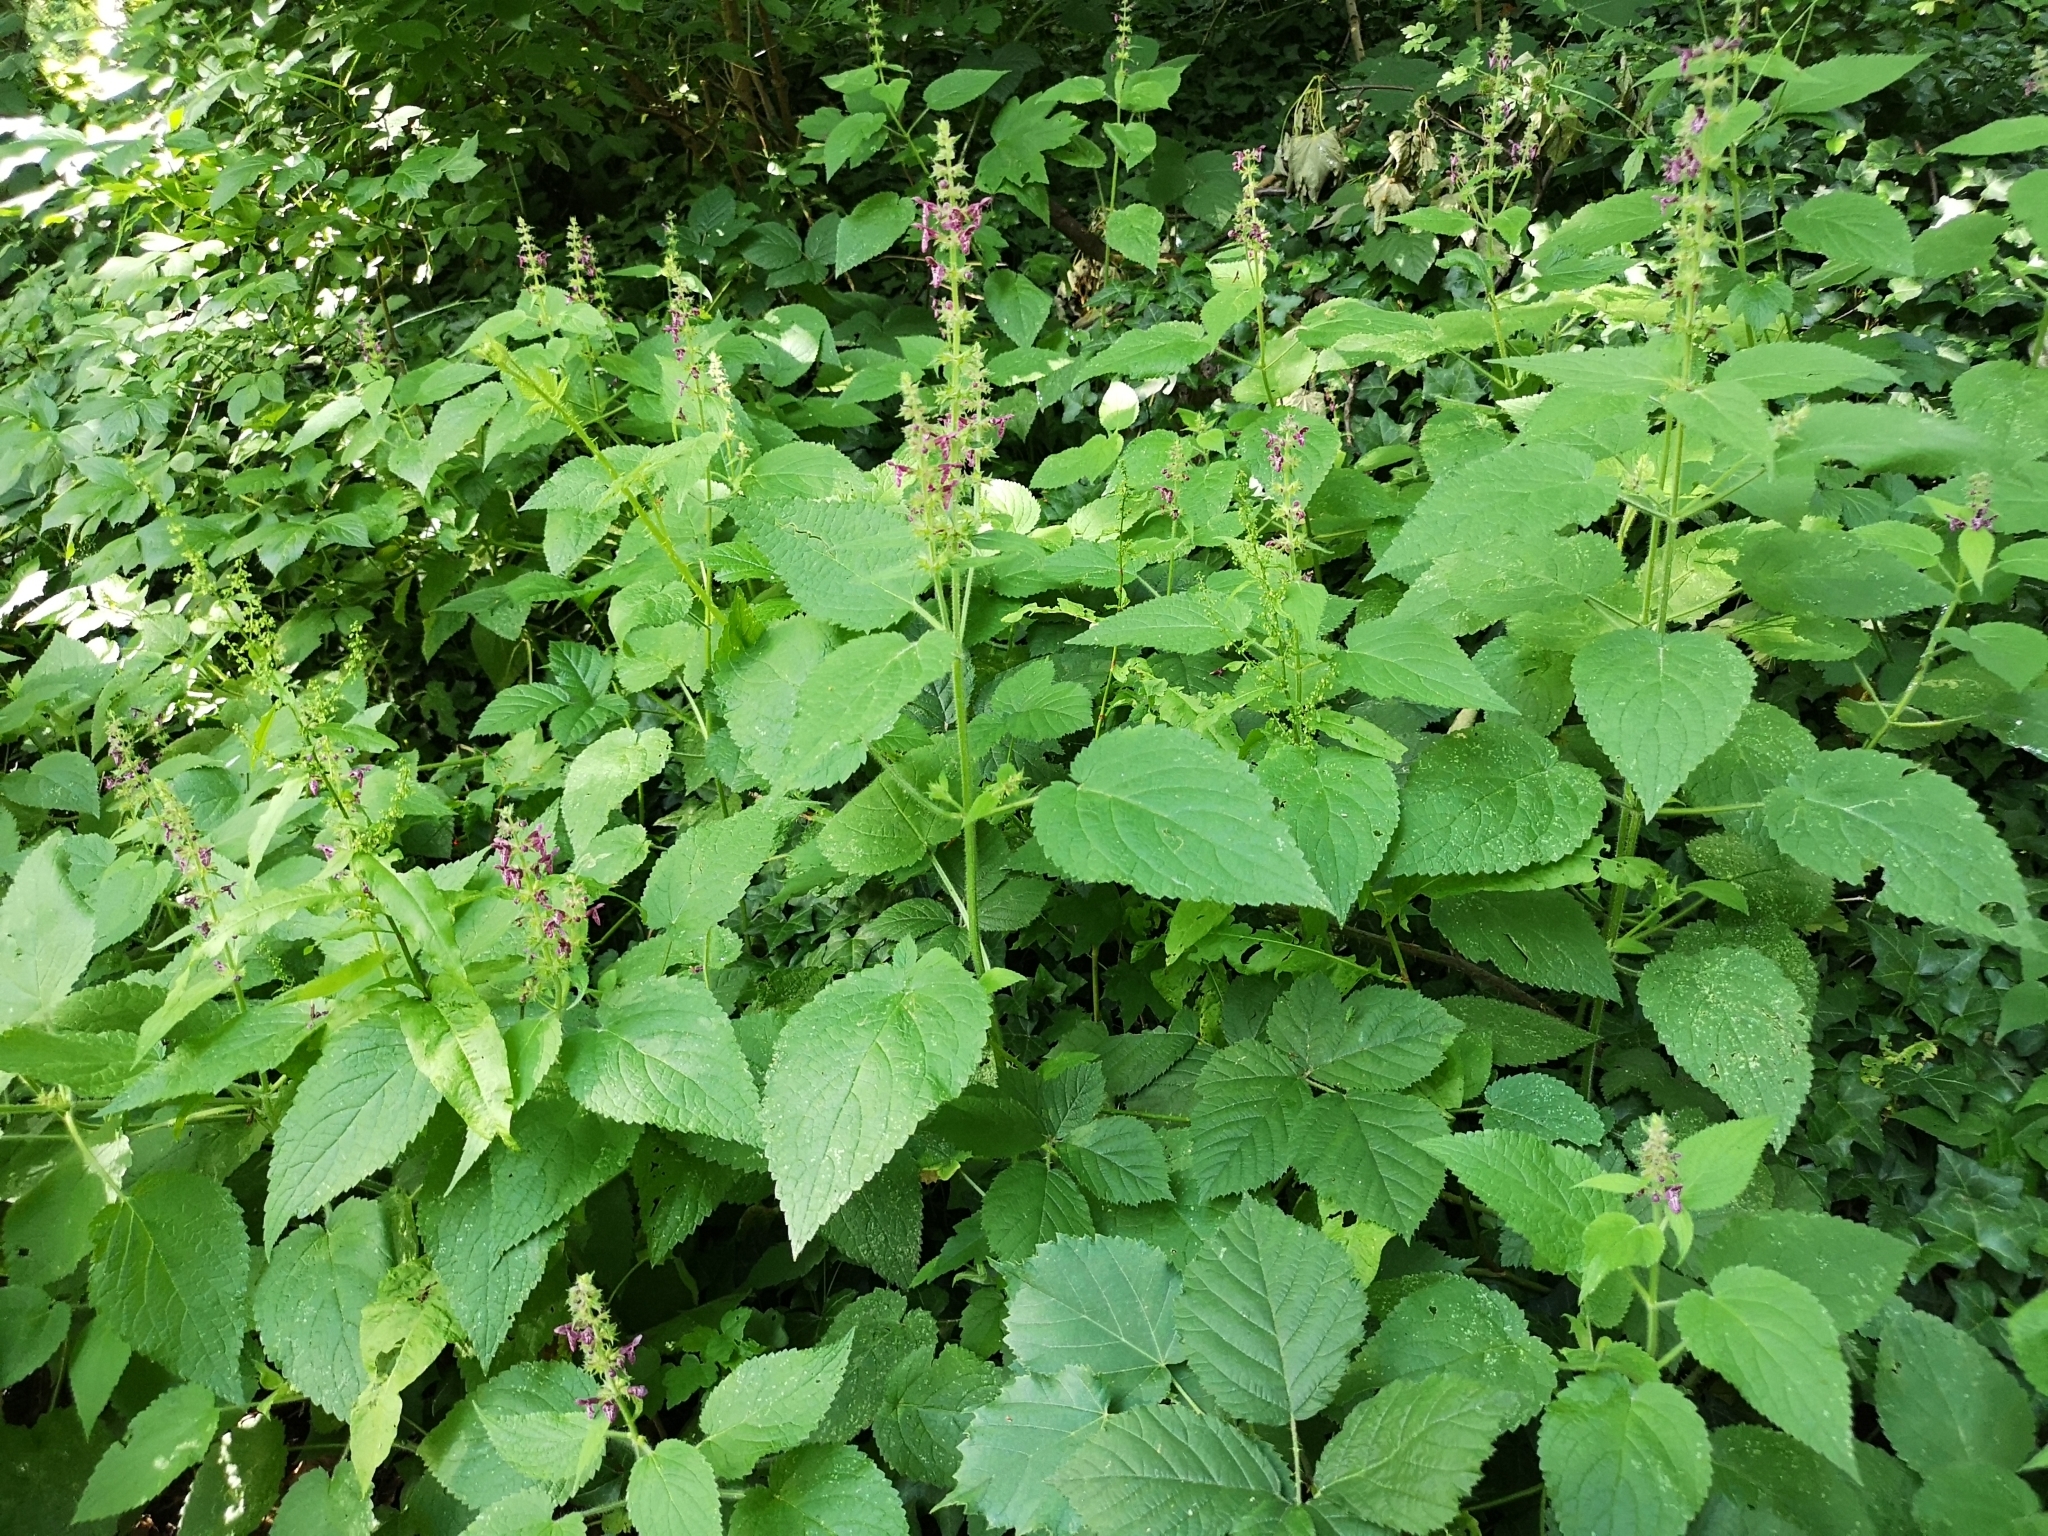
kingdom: Plantae
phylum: Tracheophyta
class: Magnoliopsida
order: Lamiales
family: Lamiaceae
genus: Stachys
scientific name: Stachys sylvatica
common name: Hedge woundwort
